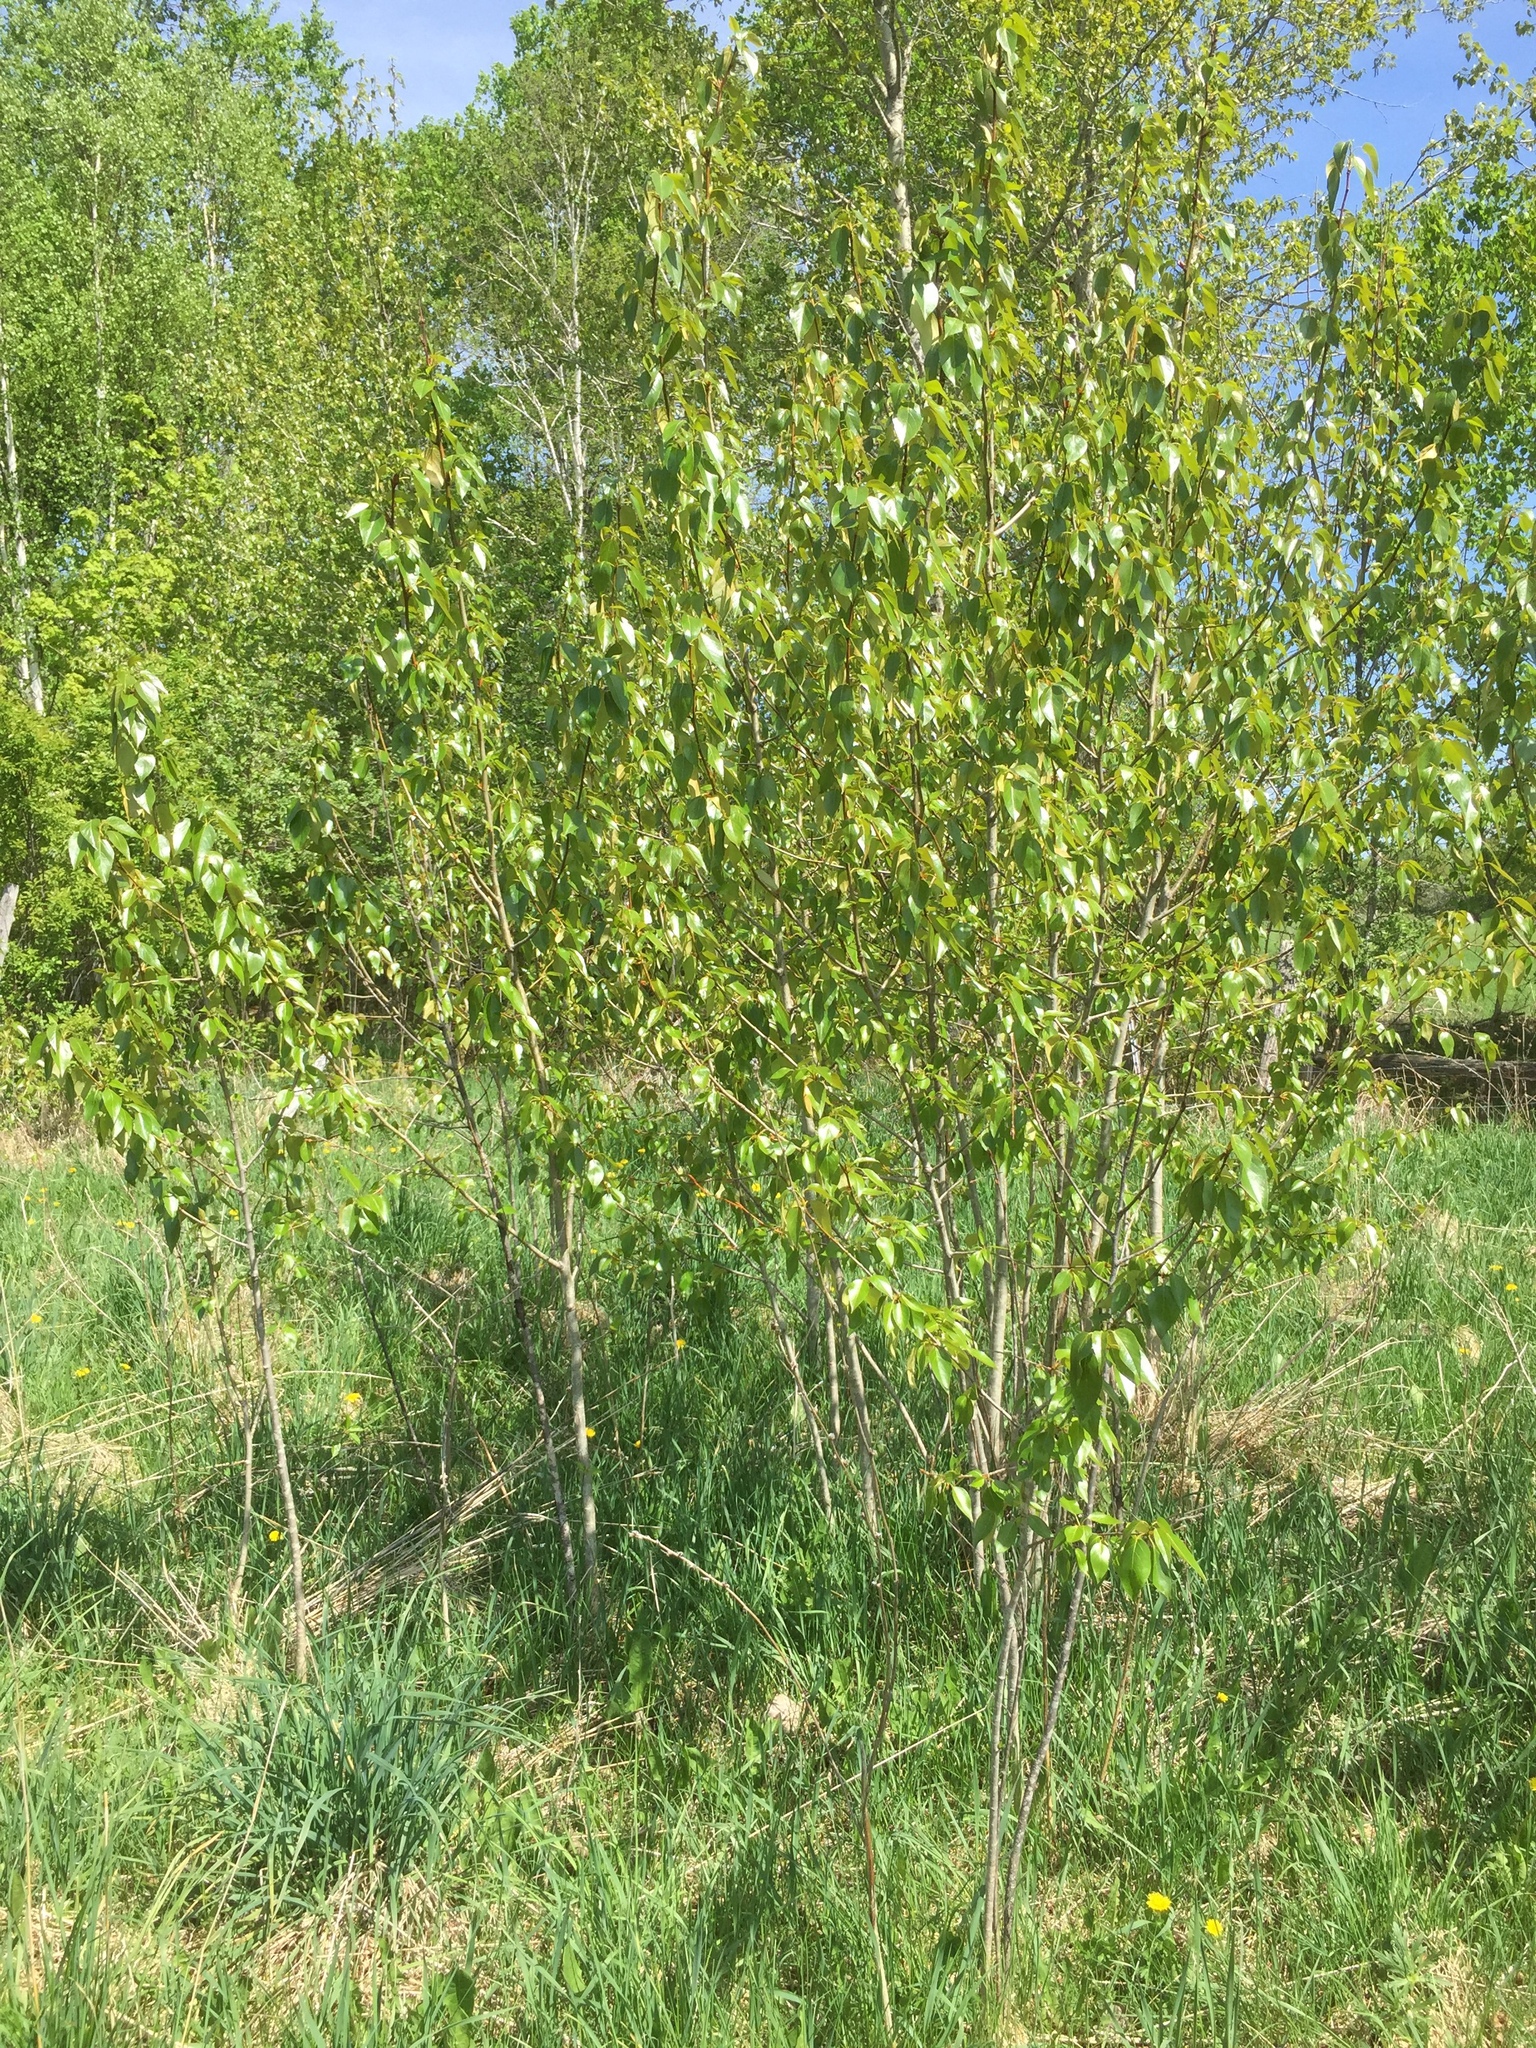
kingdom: Plantae
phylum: Tracheophyta
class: Magnoliopsida
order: Malpighiales
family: Salicaceae
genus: Populus
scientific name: Populus balsamifera
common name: Balsam poplar
